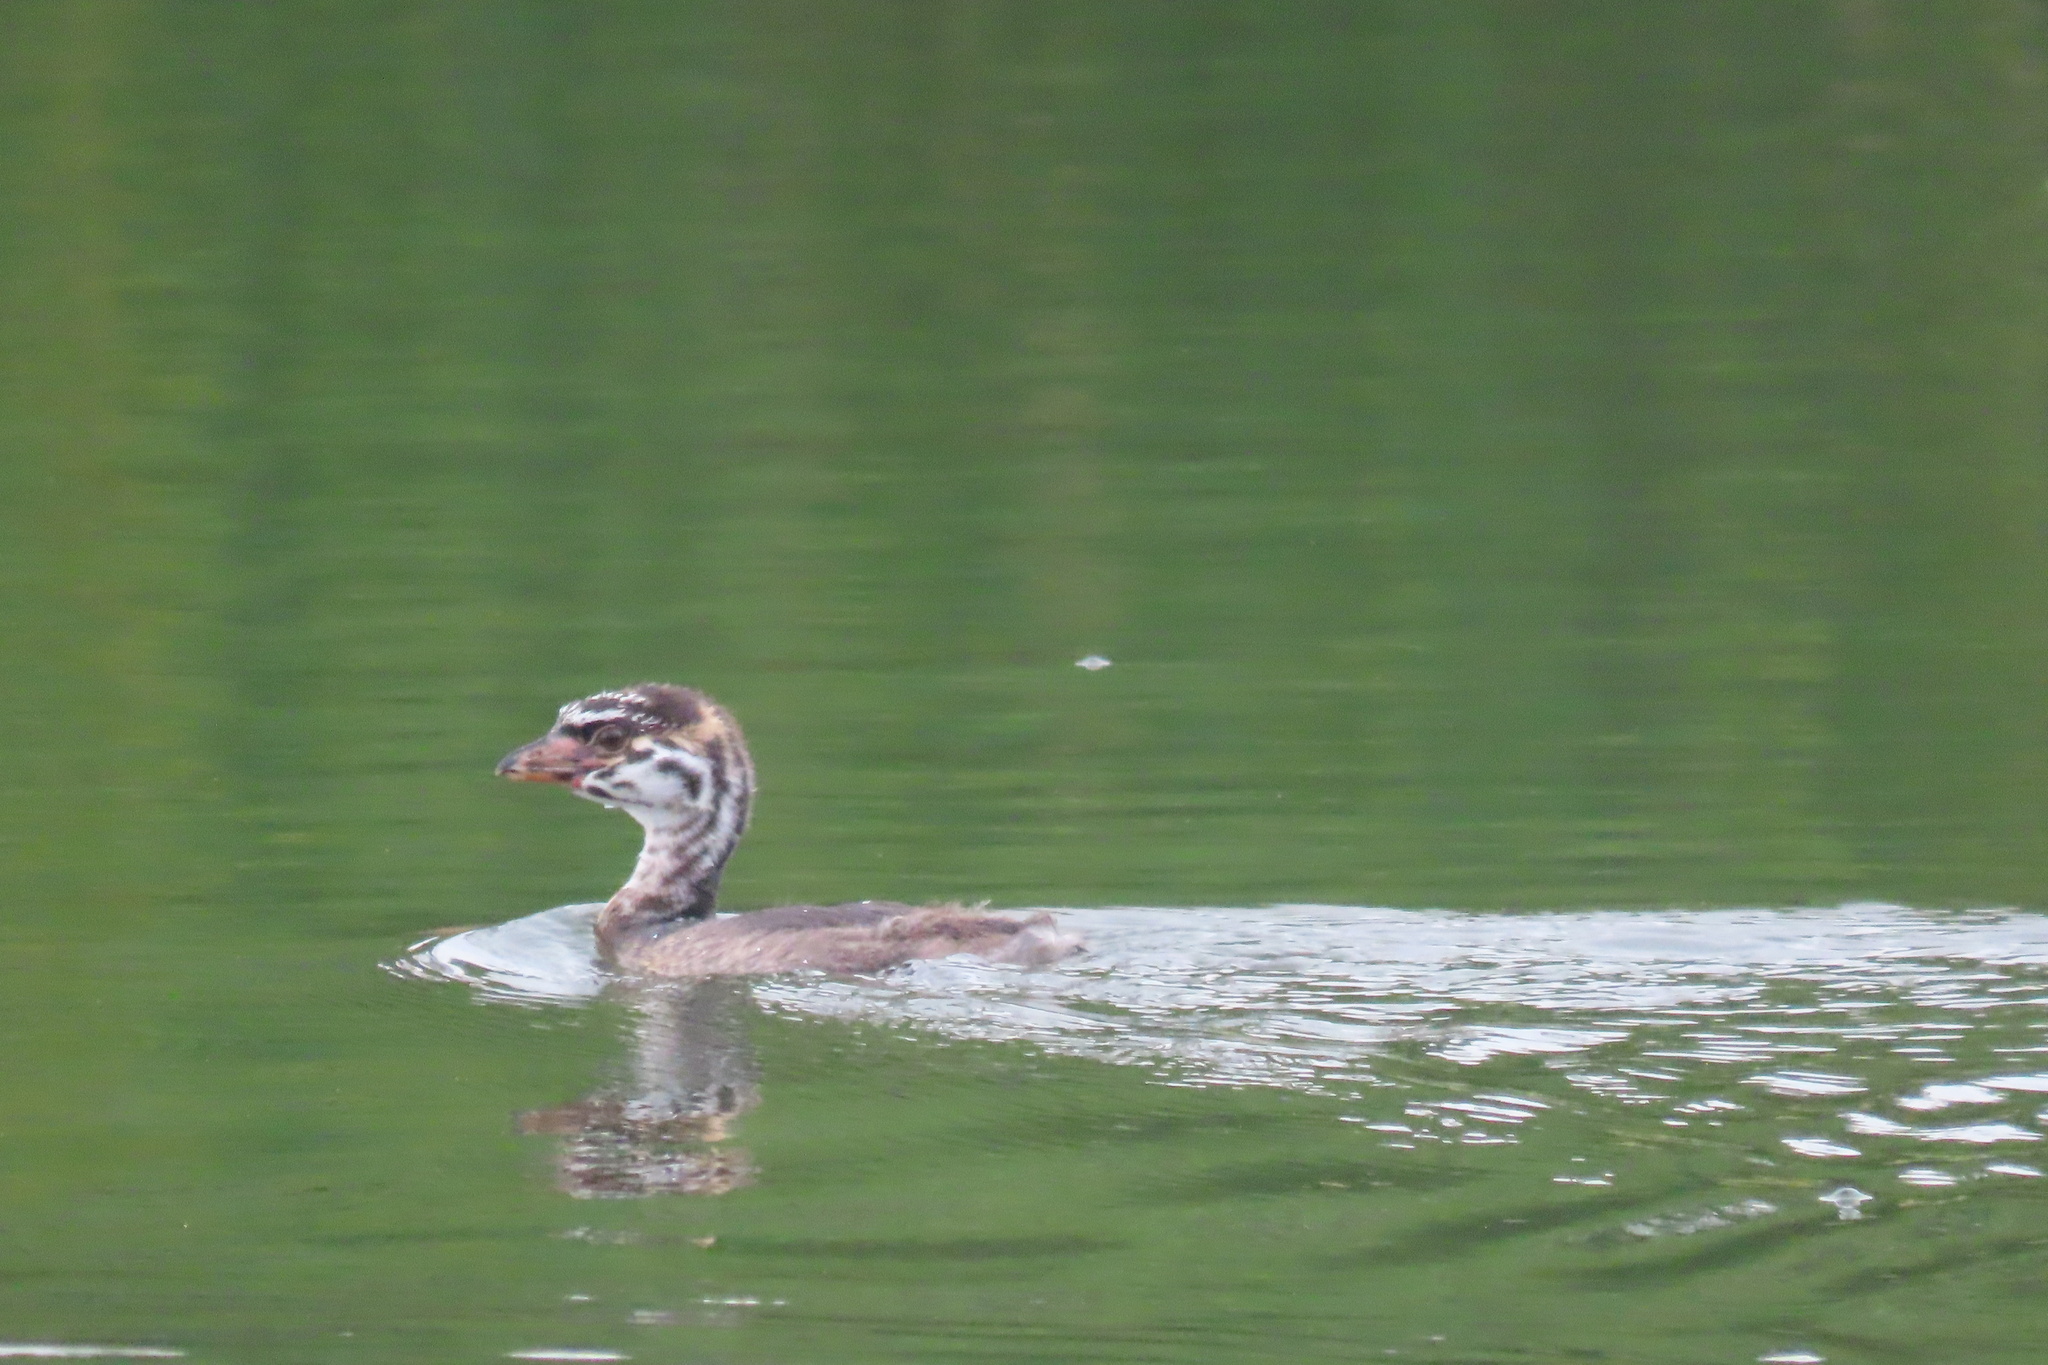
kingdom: Animalia
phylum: Chordata
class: Aves
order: Podicipediformes
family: Podicipedidae
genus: Podilymbus
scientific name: Podilymbus podiceps
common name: Pied-billed grebe
